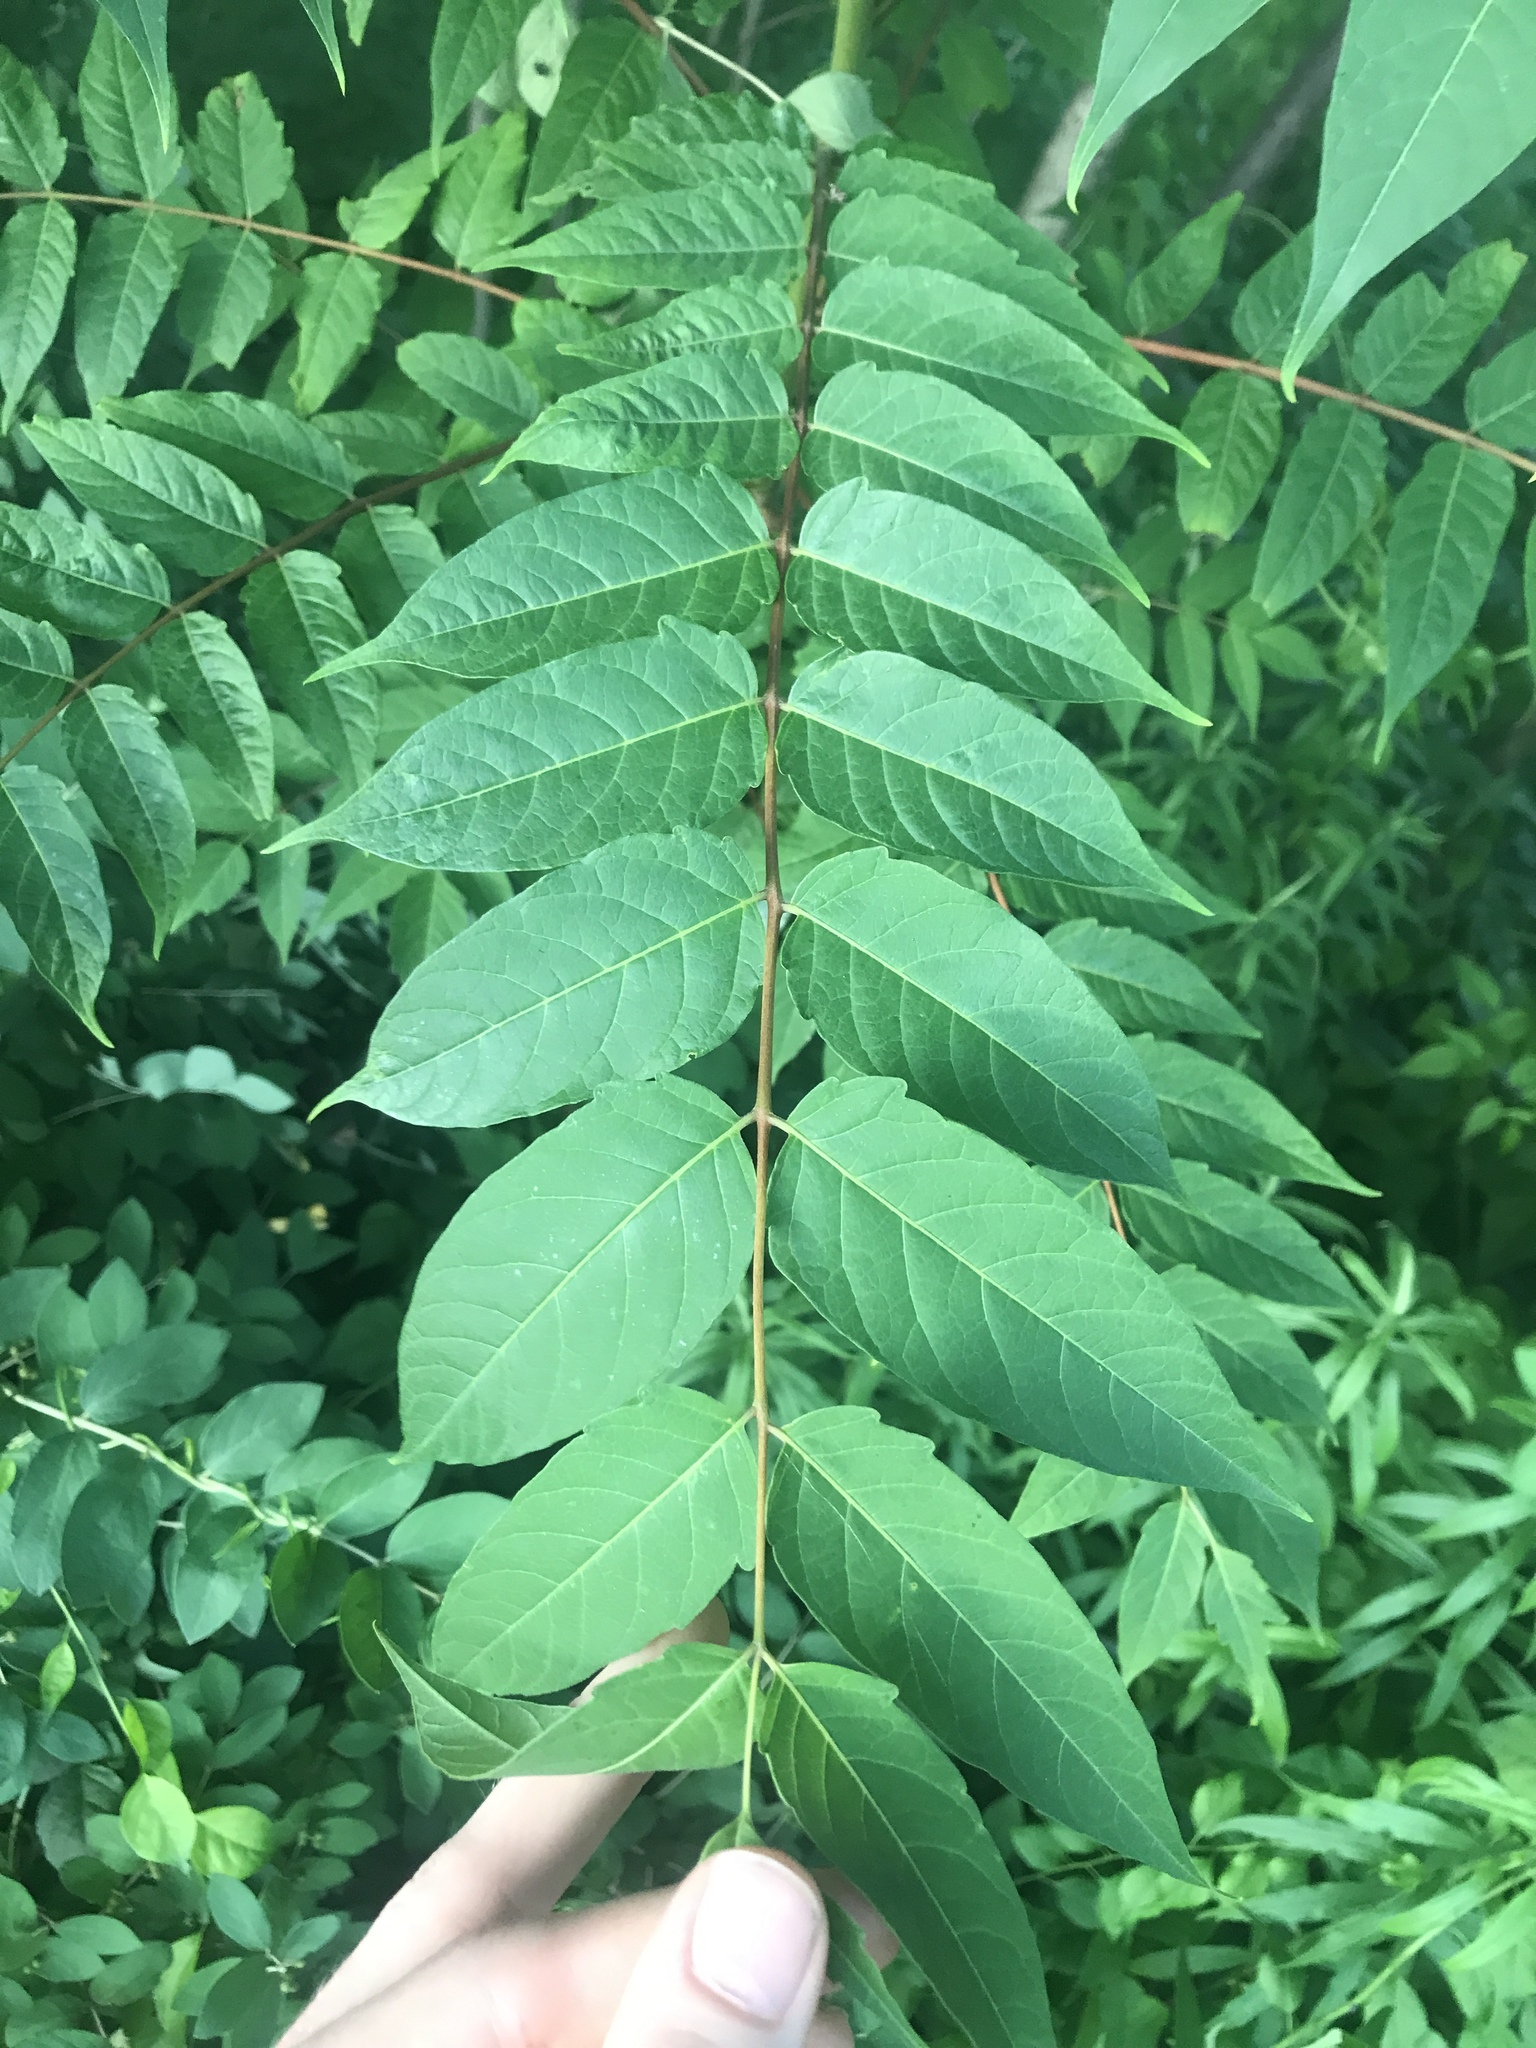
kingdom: Plantae
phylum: Tracheophyta
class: Magnoliopsida
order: Sapindales
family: Simaroubaceae
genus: Ailanthus
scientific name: Ailanthus altissima
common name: Tree-of-heaven
